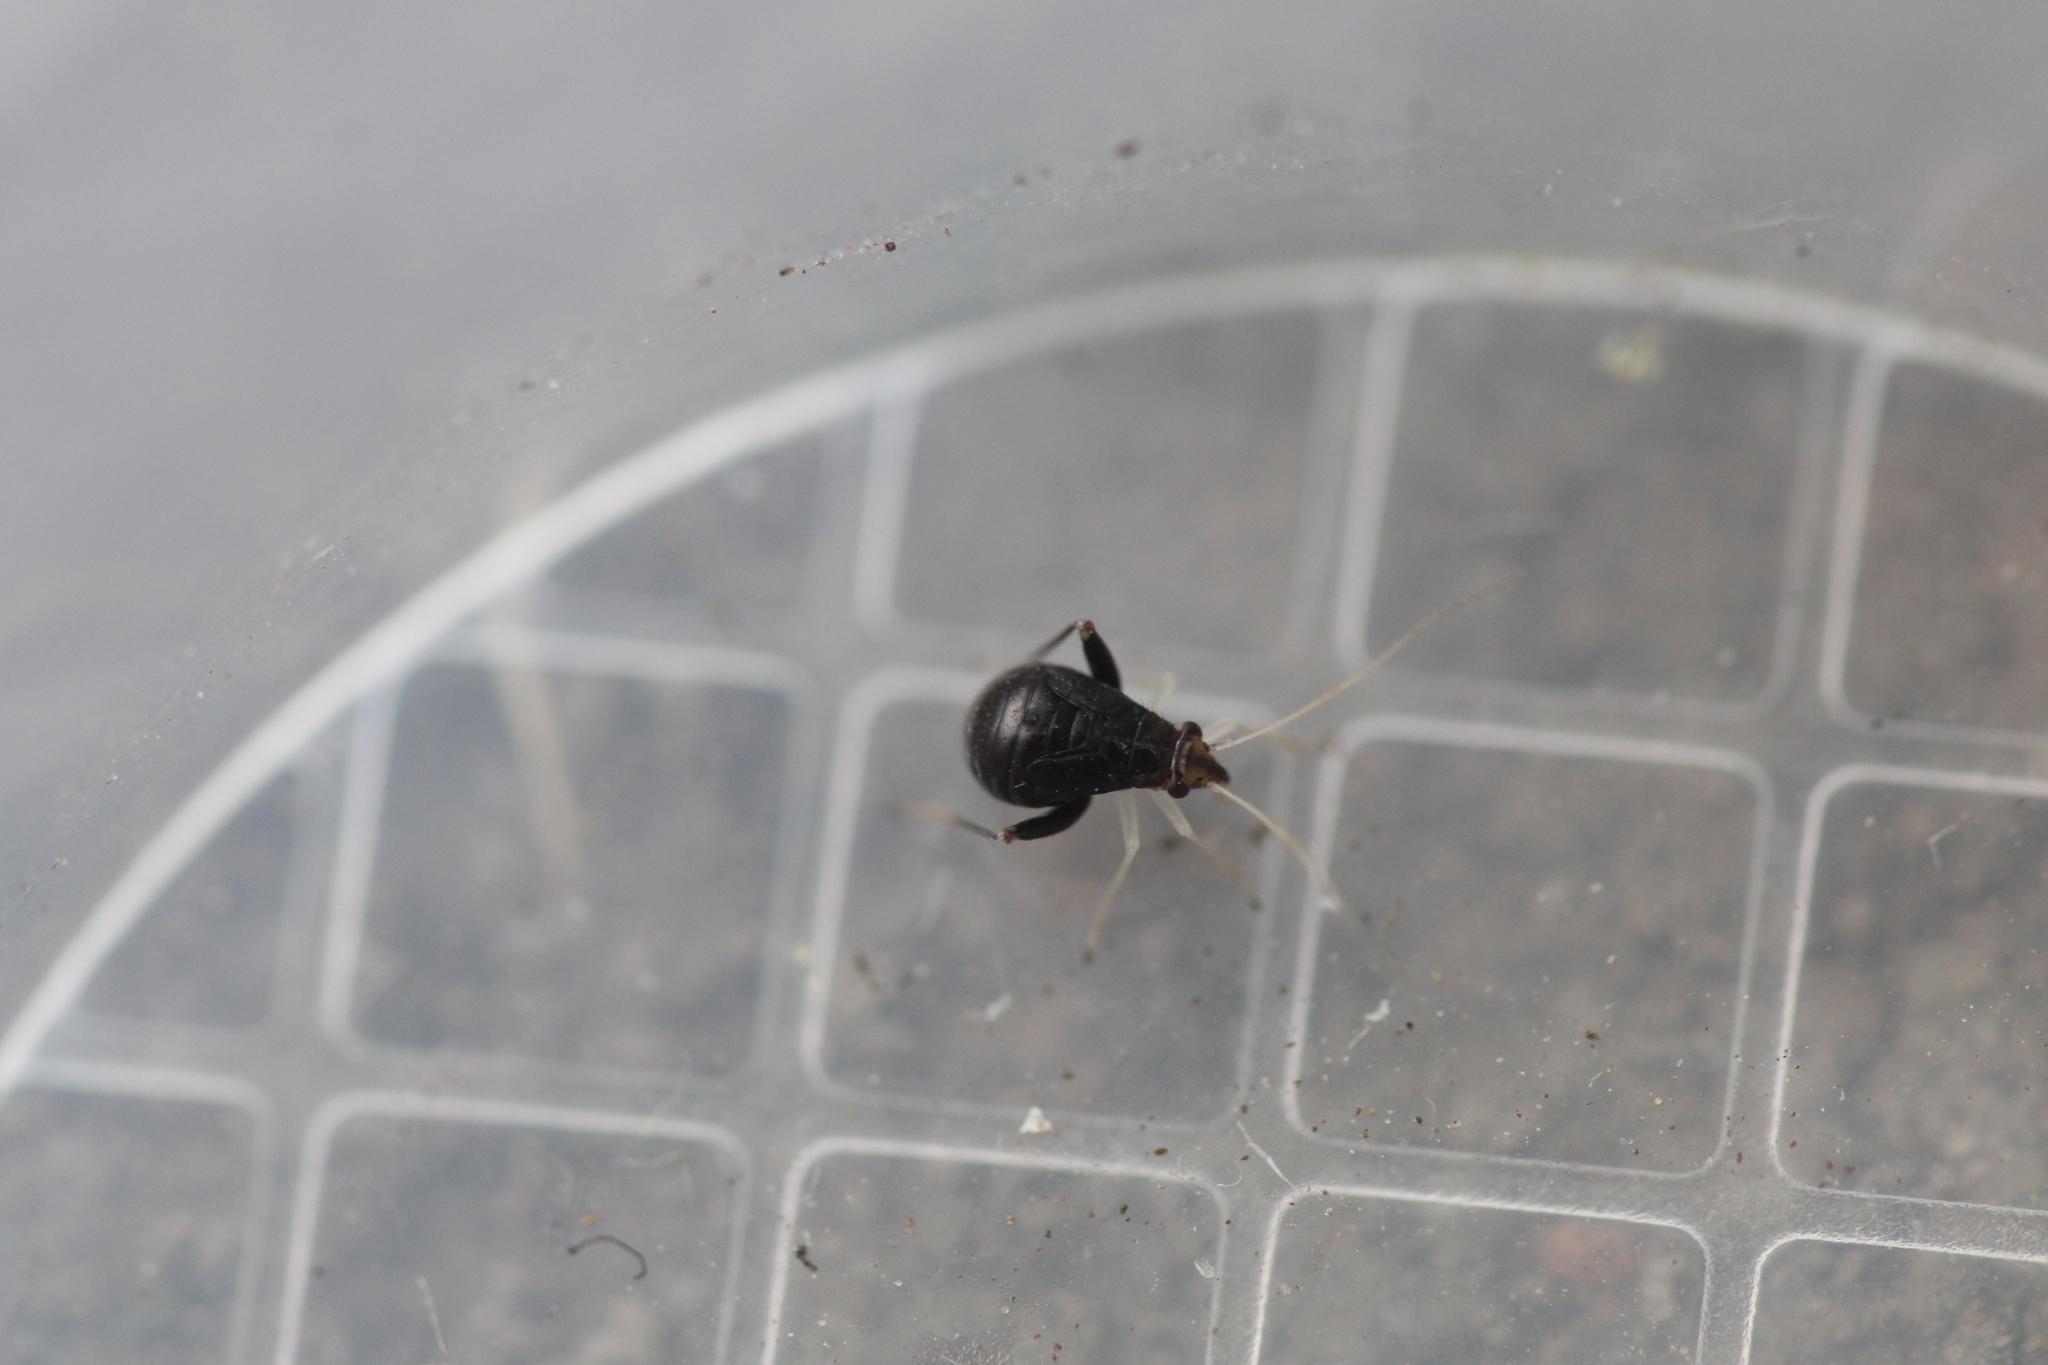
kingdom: Animalia
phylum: Arthropoda
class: Insecta
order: Hemiptera
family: Miridae
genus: Halticus
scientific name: Halticus luteicollis
